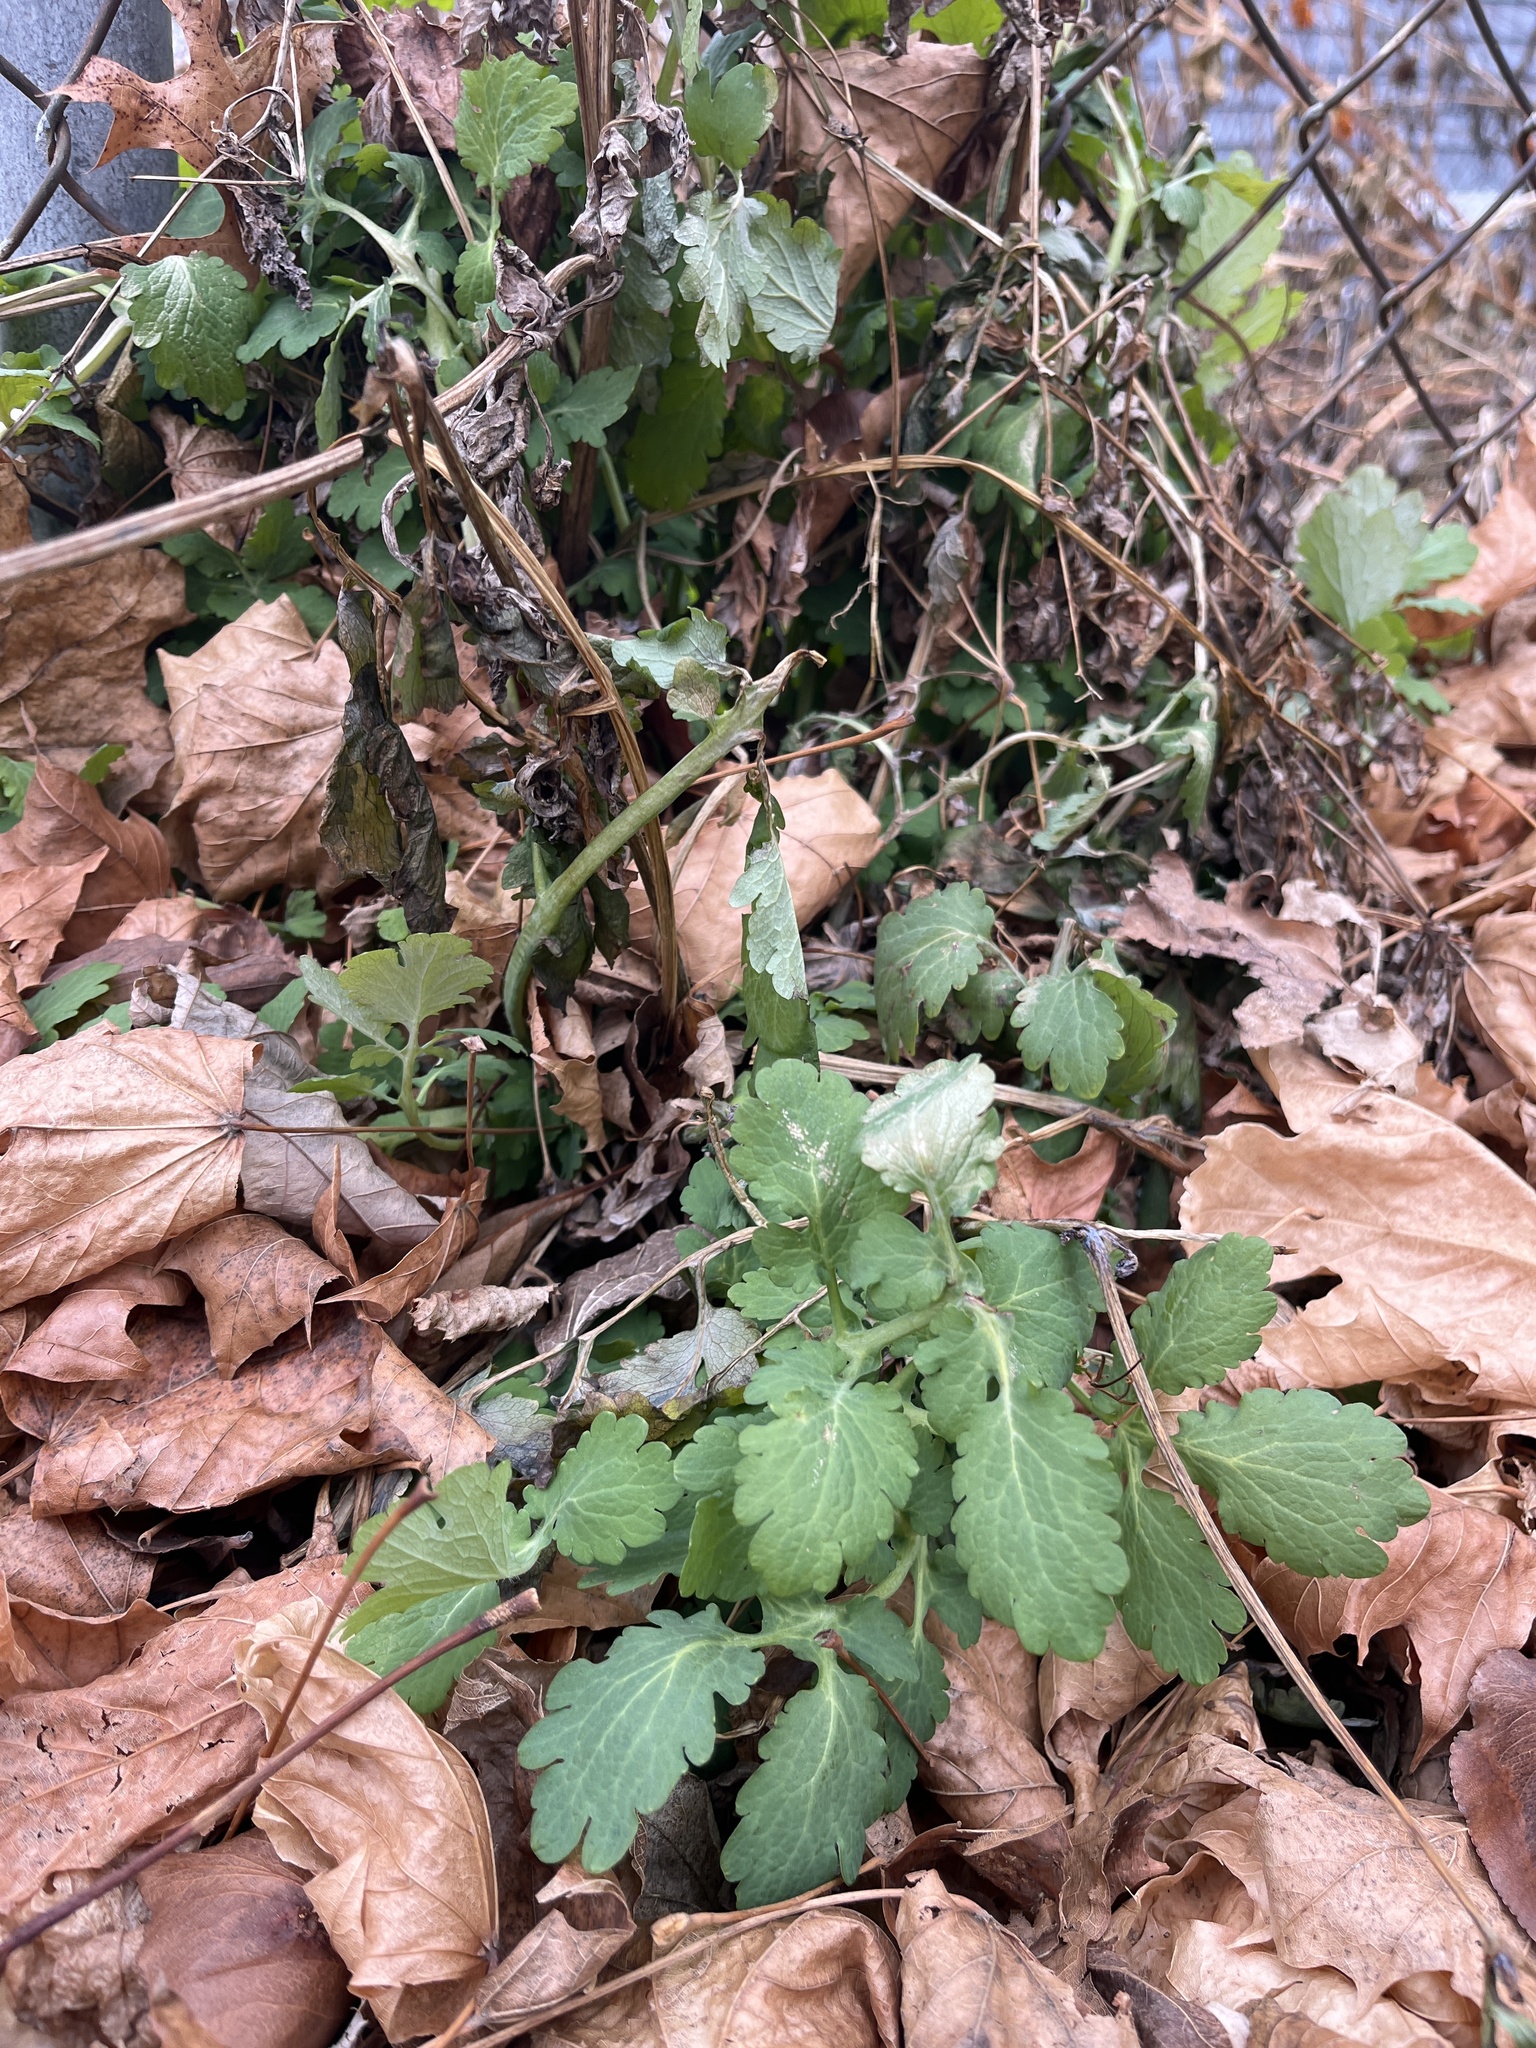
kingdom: Plantae
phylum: Tracheophyta
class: Magnoliopsida
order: Ranunculales
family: Papaveraceae
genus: Chelidonium
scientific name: Chelidonium majus
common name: Greater celandine
